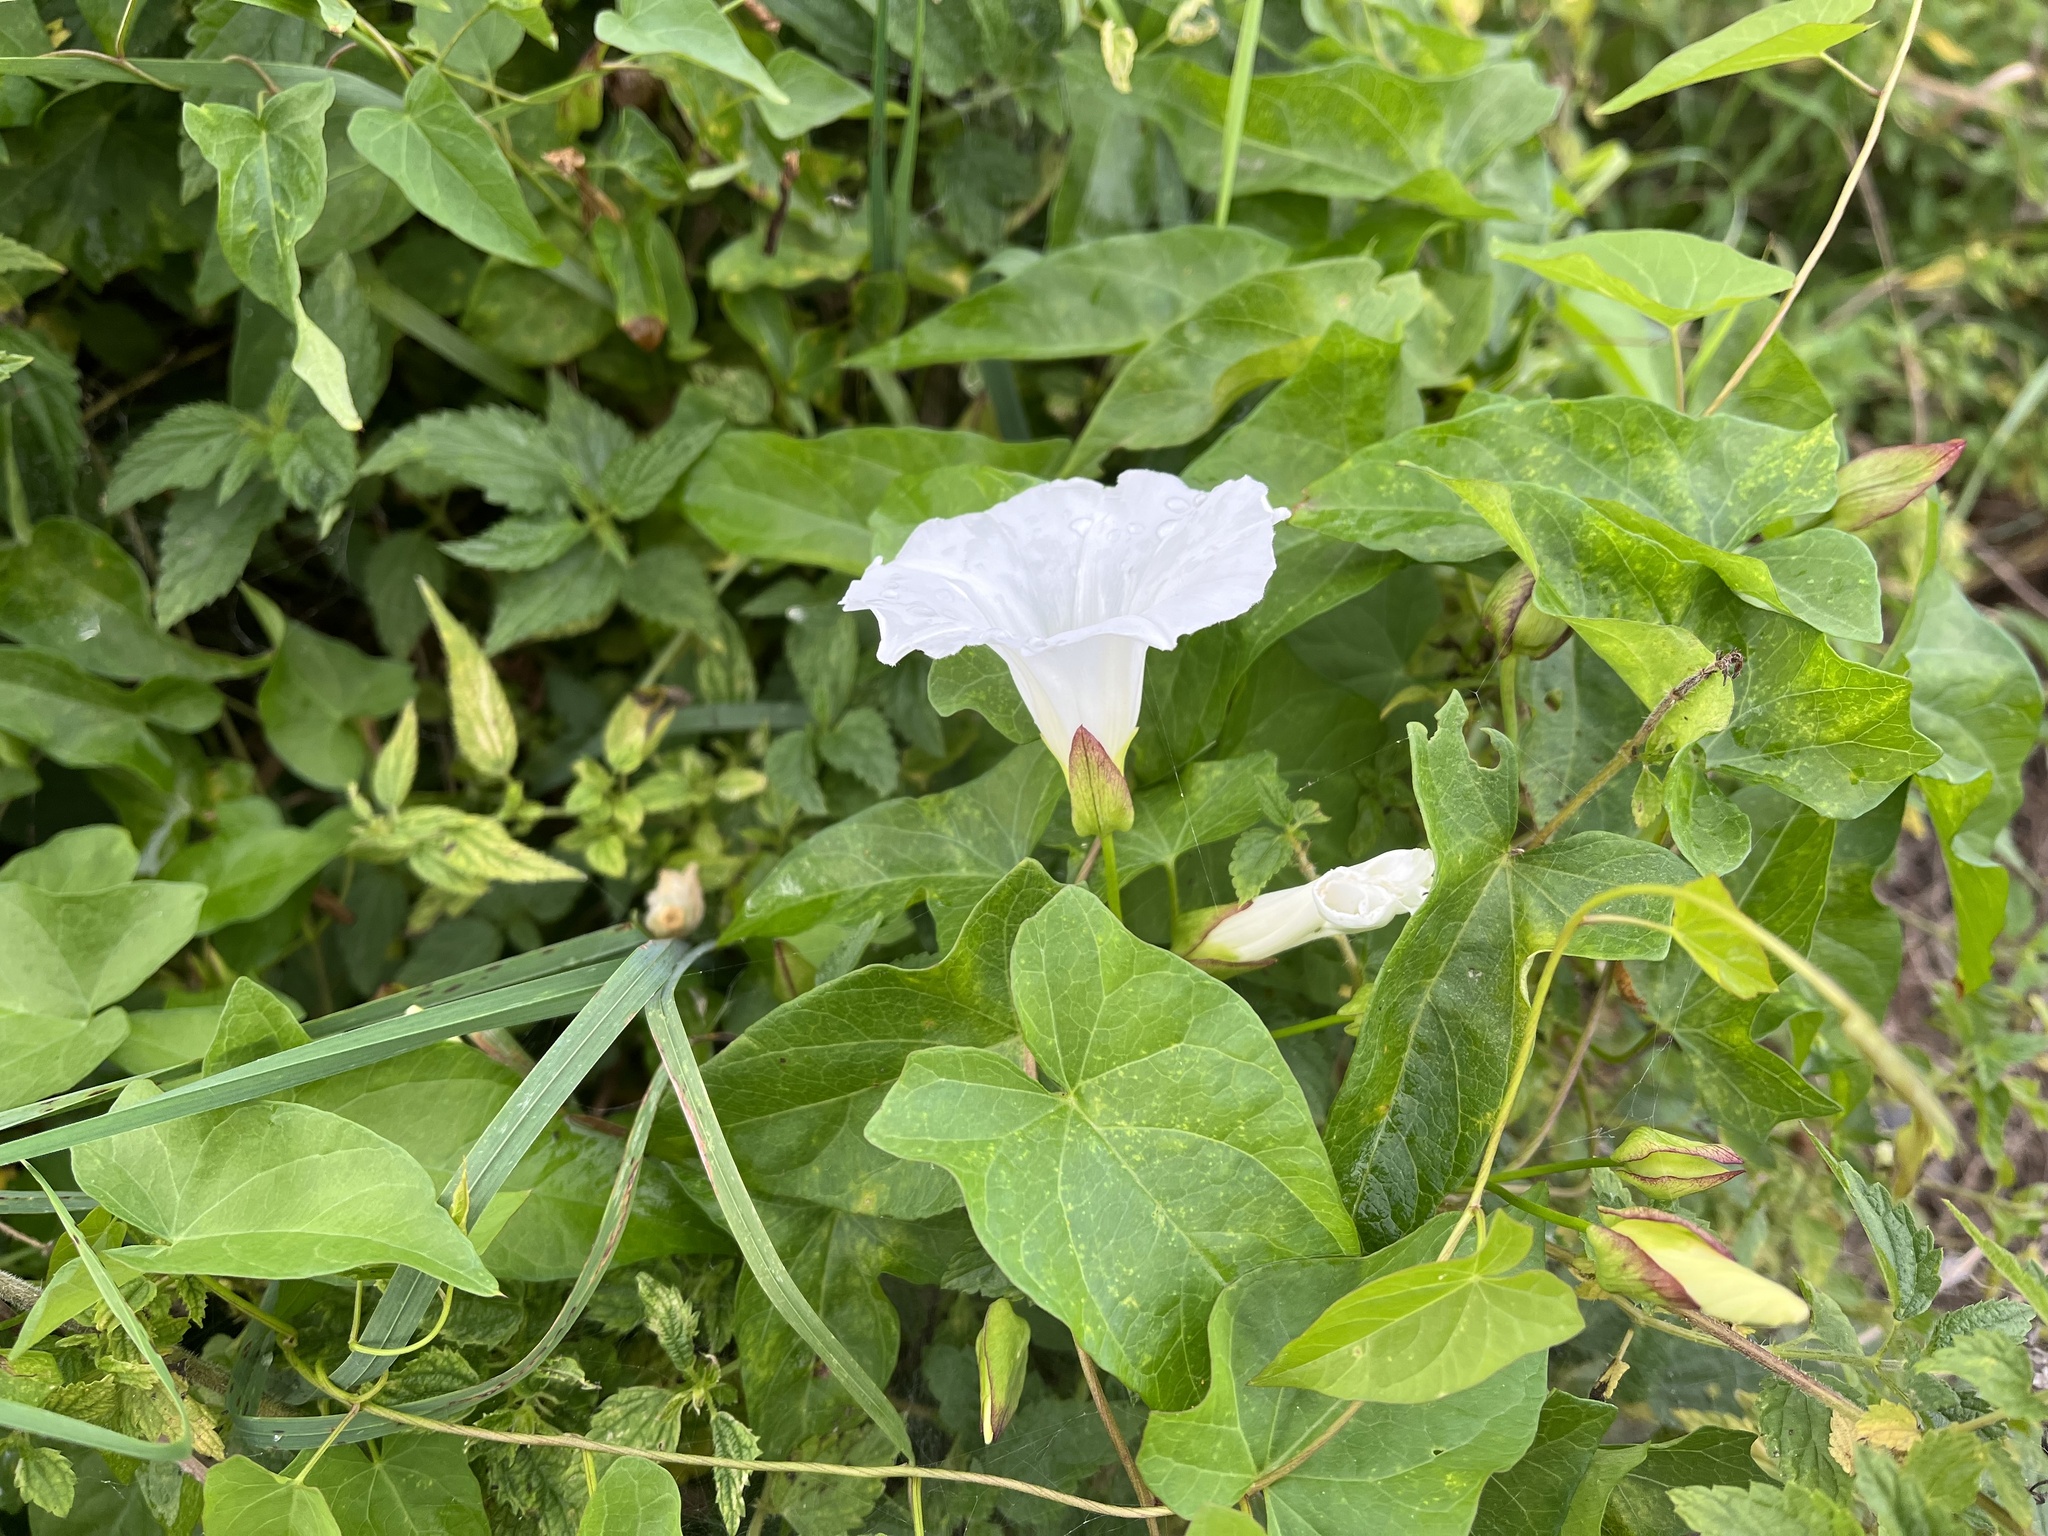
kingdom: Plantae
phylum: Tracheophyta
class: Magnoliopsida
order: Solanales
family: Convolvulaceae
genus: Calystegia
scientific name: Calystegia sepium
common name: Hedge bindweed
